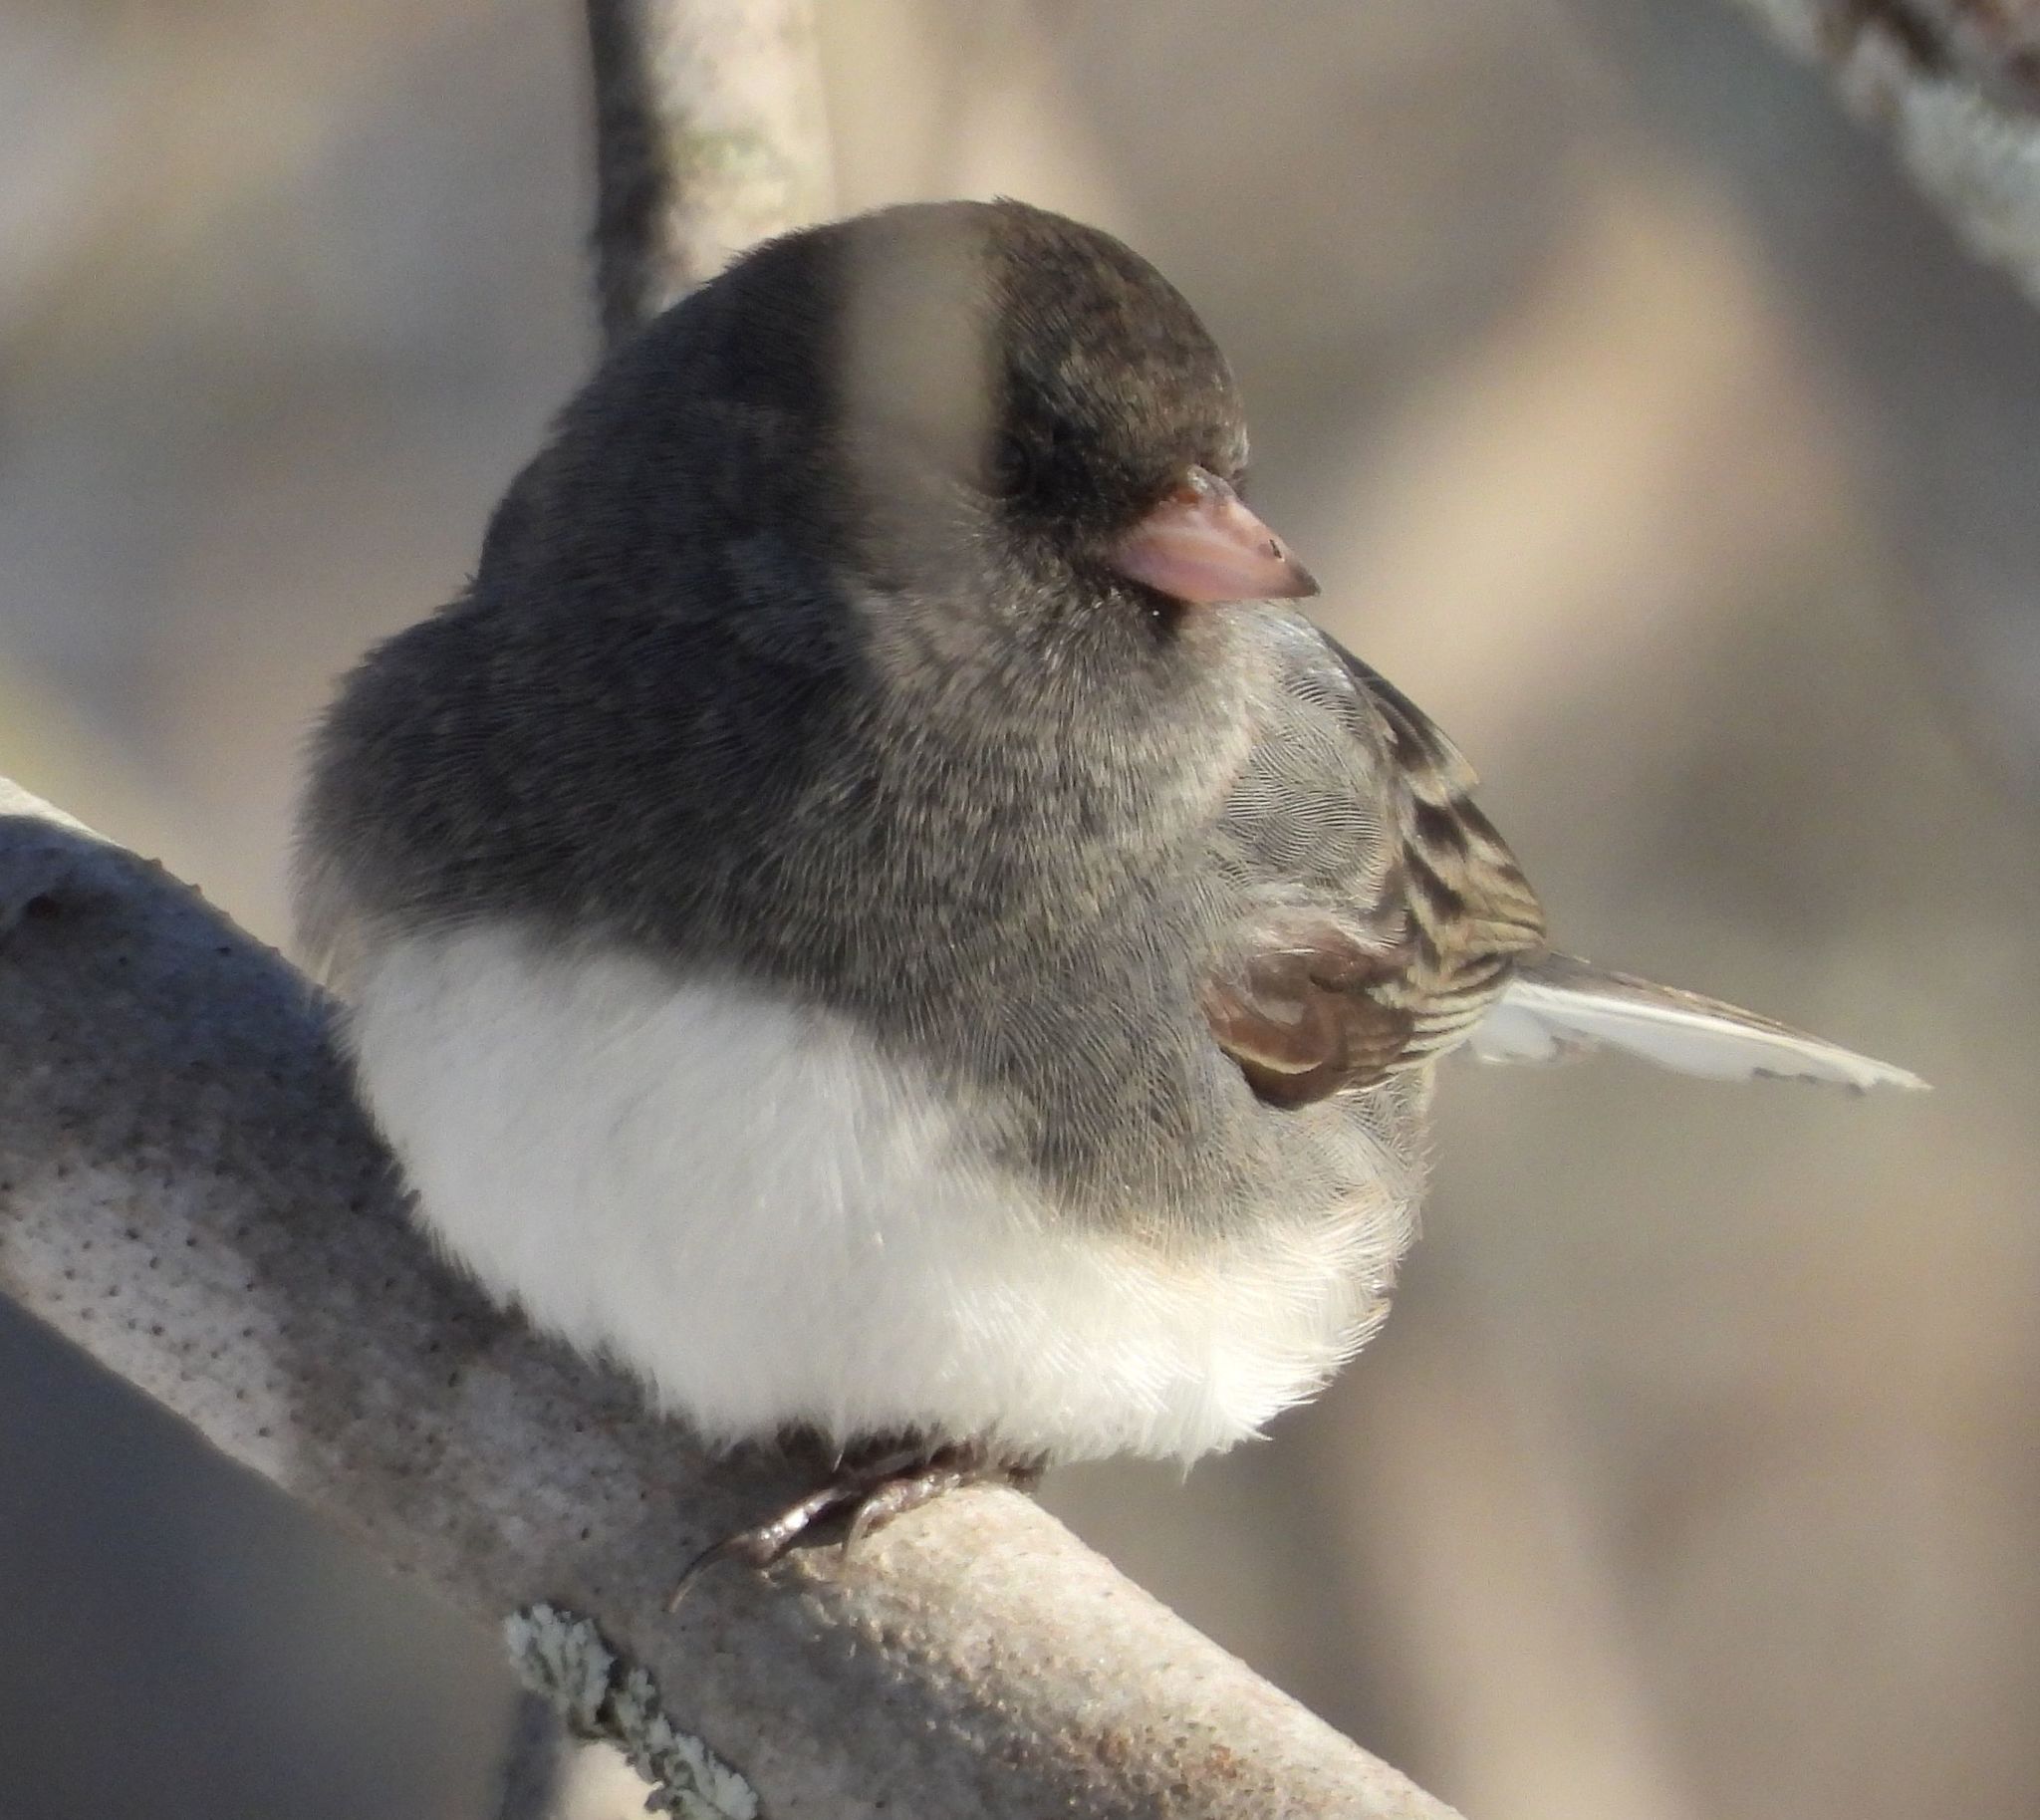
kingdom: Animalia
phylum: Chordata
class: Aves
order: Passeriformes
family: Passerellidae
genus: Junco
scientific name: Junco hyemalis
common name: Dark-eyed junco
